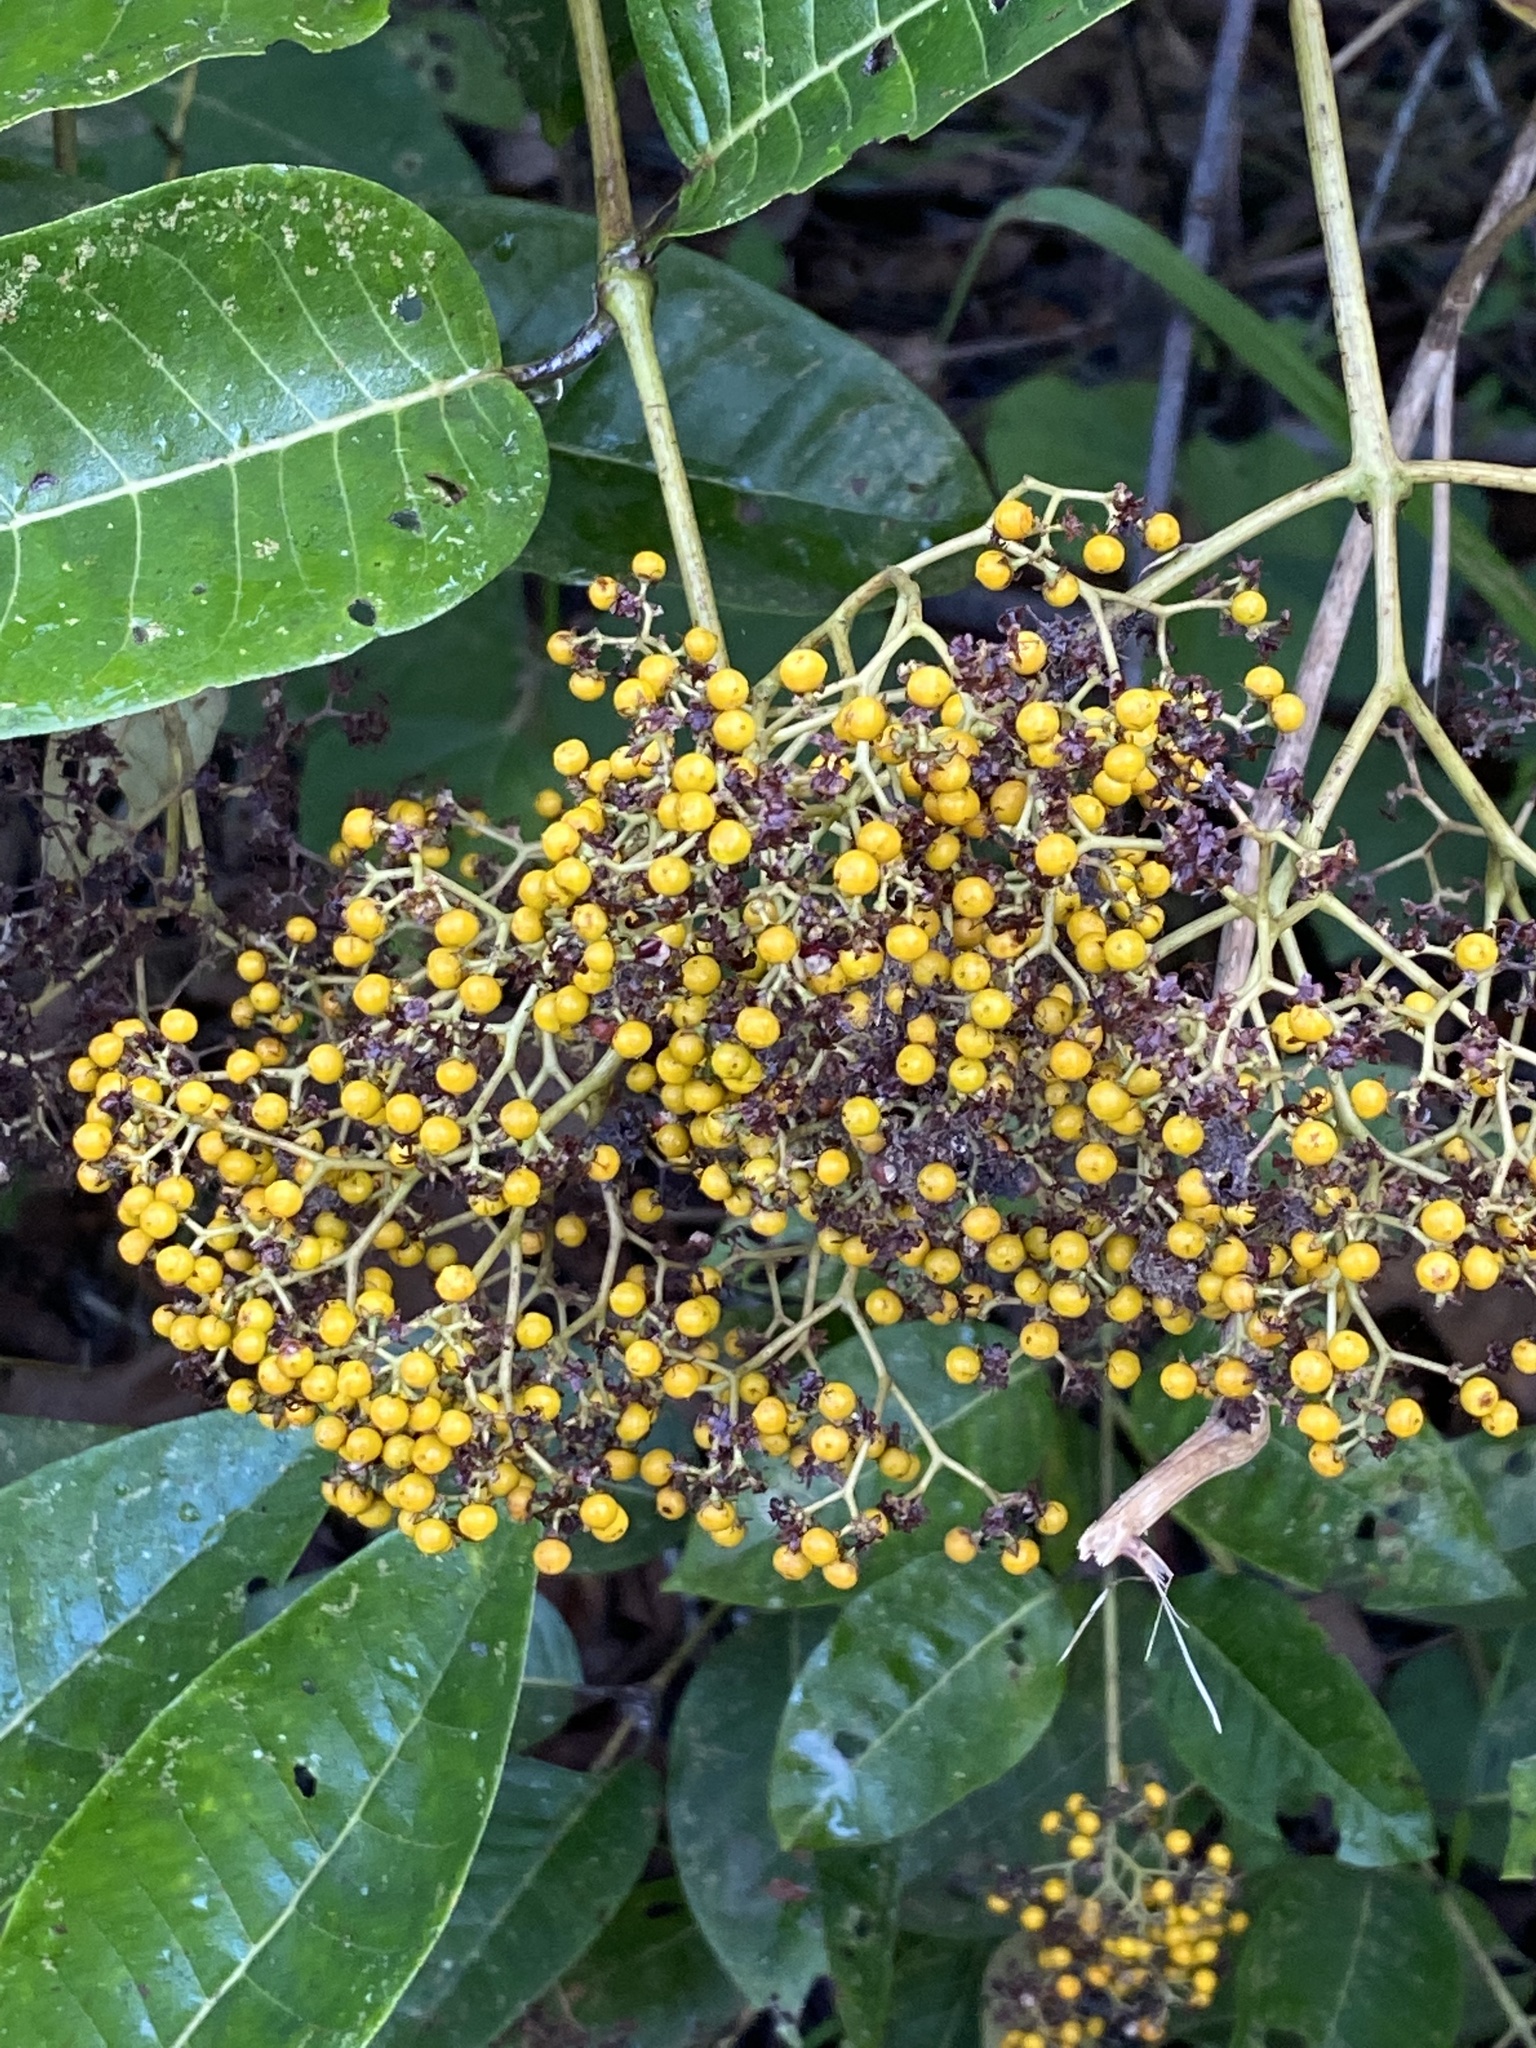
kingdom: Plantae
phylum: Tracheophyta
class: Magnoliopsida
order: Malpighiales
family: Hypericaceae
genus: Harungana
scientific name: Harungana madagascariensis
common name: Orange milktree
